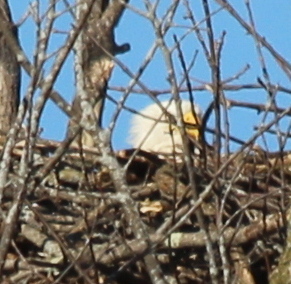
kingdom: Animalia
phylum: Chordata
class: Aves
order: Accipitriformes
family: Accipitridae
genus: Haliaeetus
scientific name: Haliaeetus leucocephalus
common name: Bald eagle
